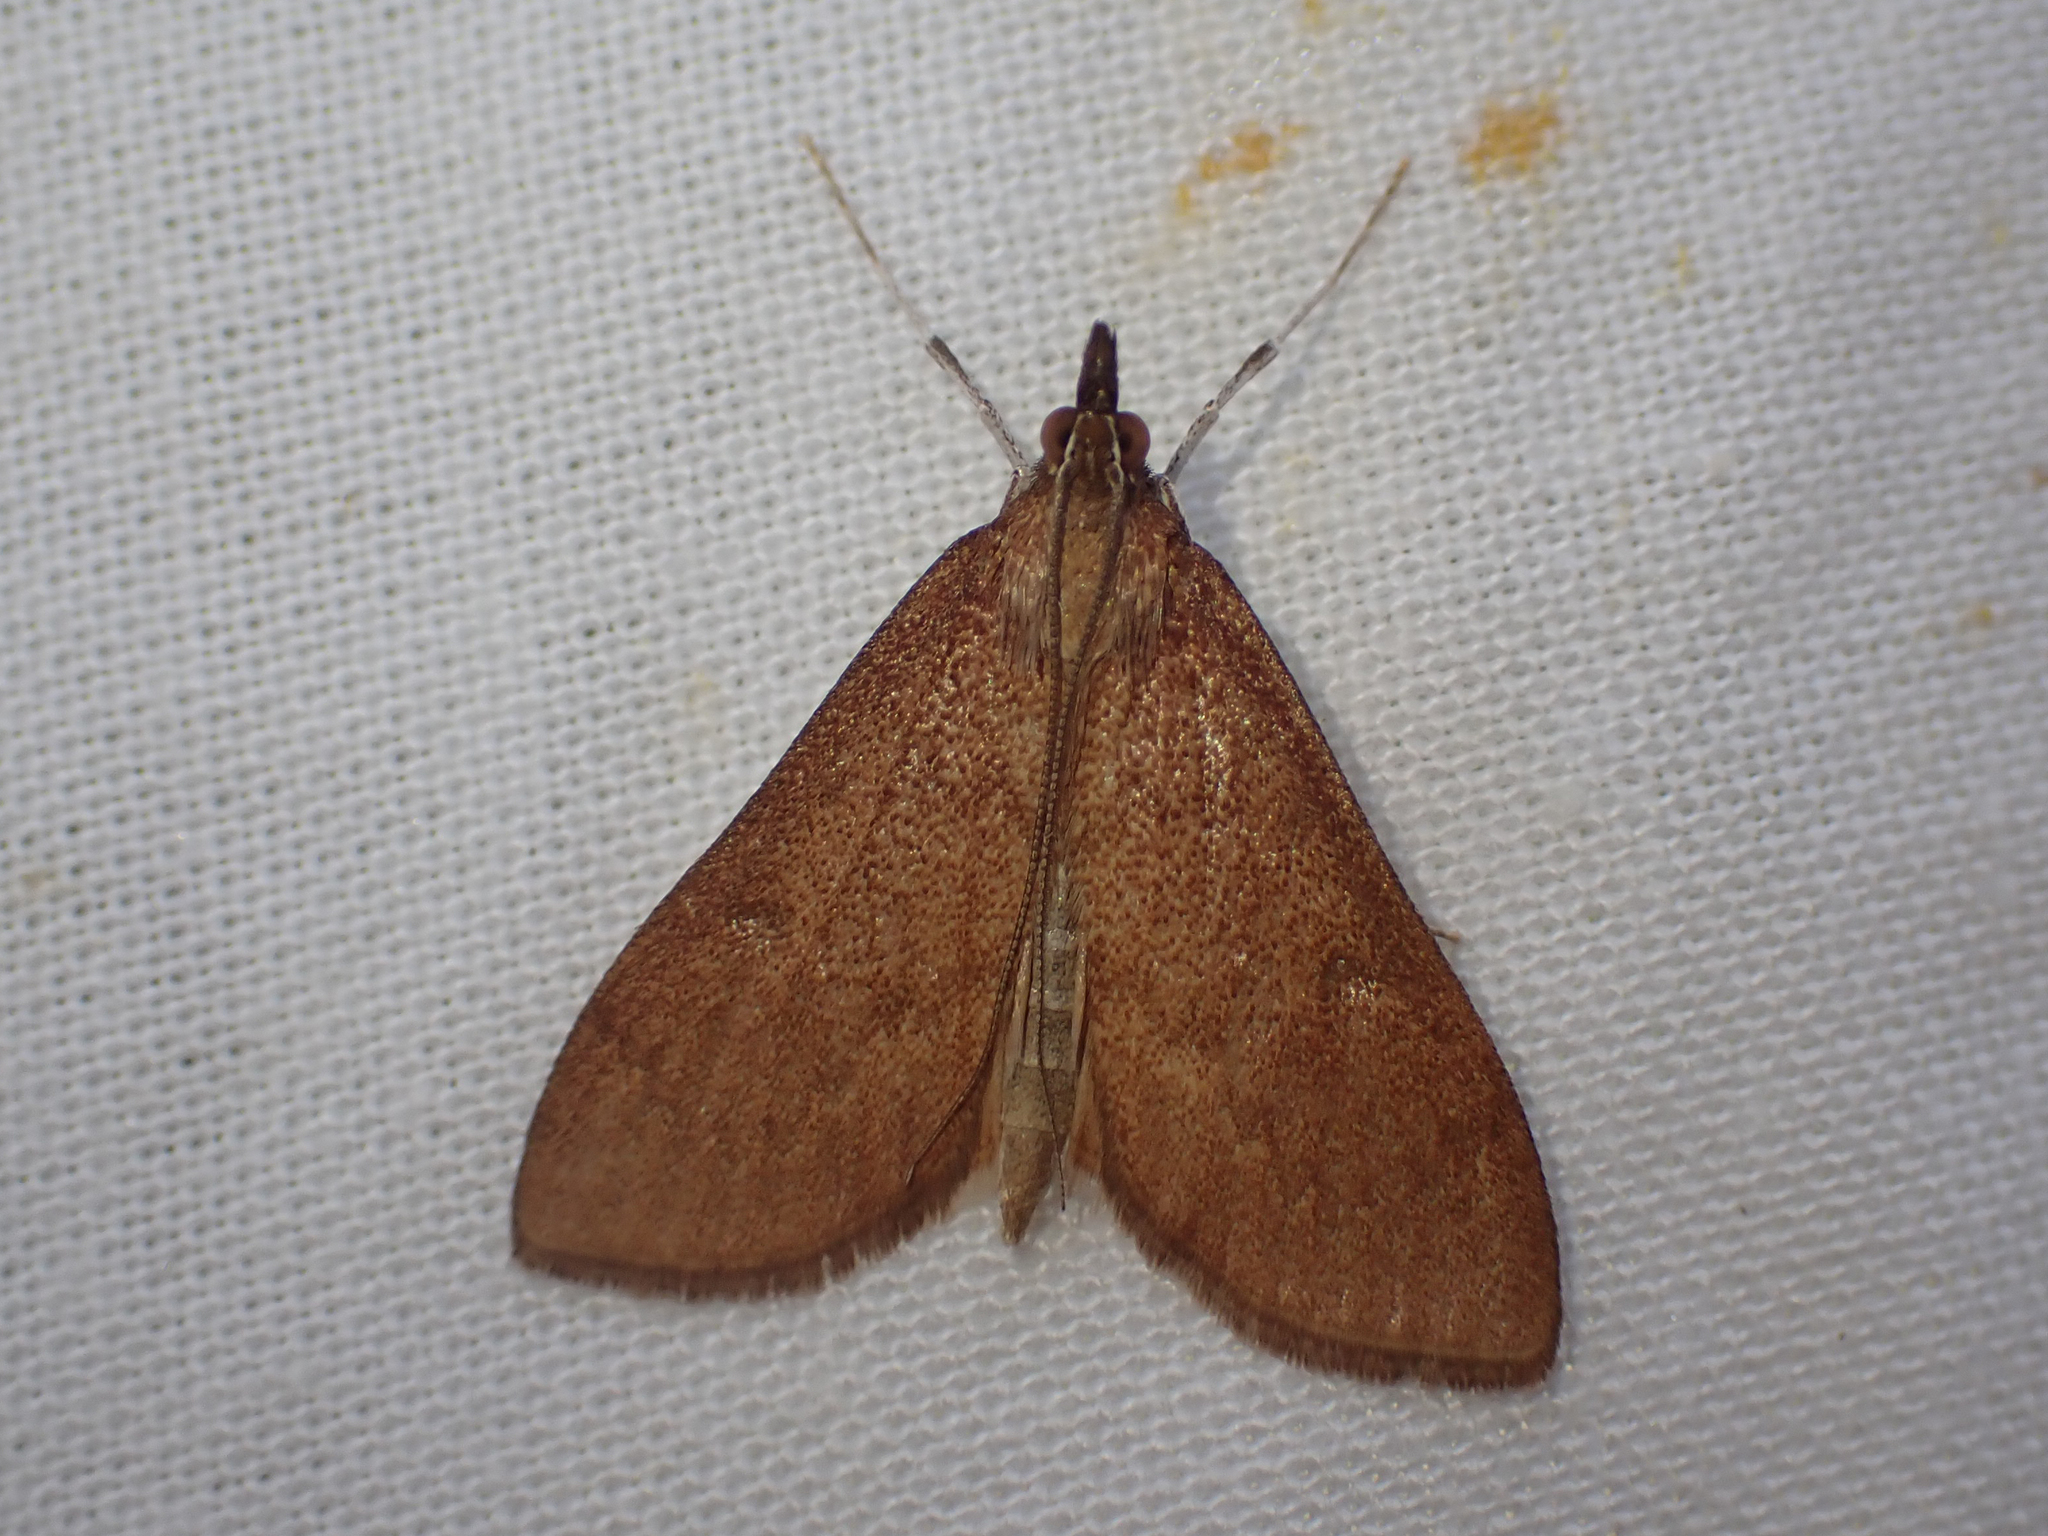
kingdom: Animalia
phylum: Arthropoda
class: Insecta
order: Lepidoptera
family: Crambidae
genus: Saucrobotys
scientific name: Saucrobotys futilalis
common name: Dogbane saucrobotys moth
